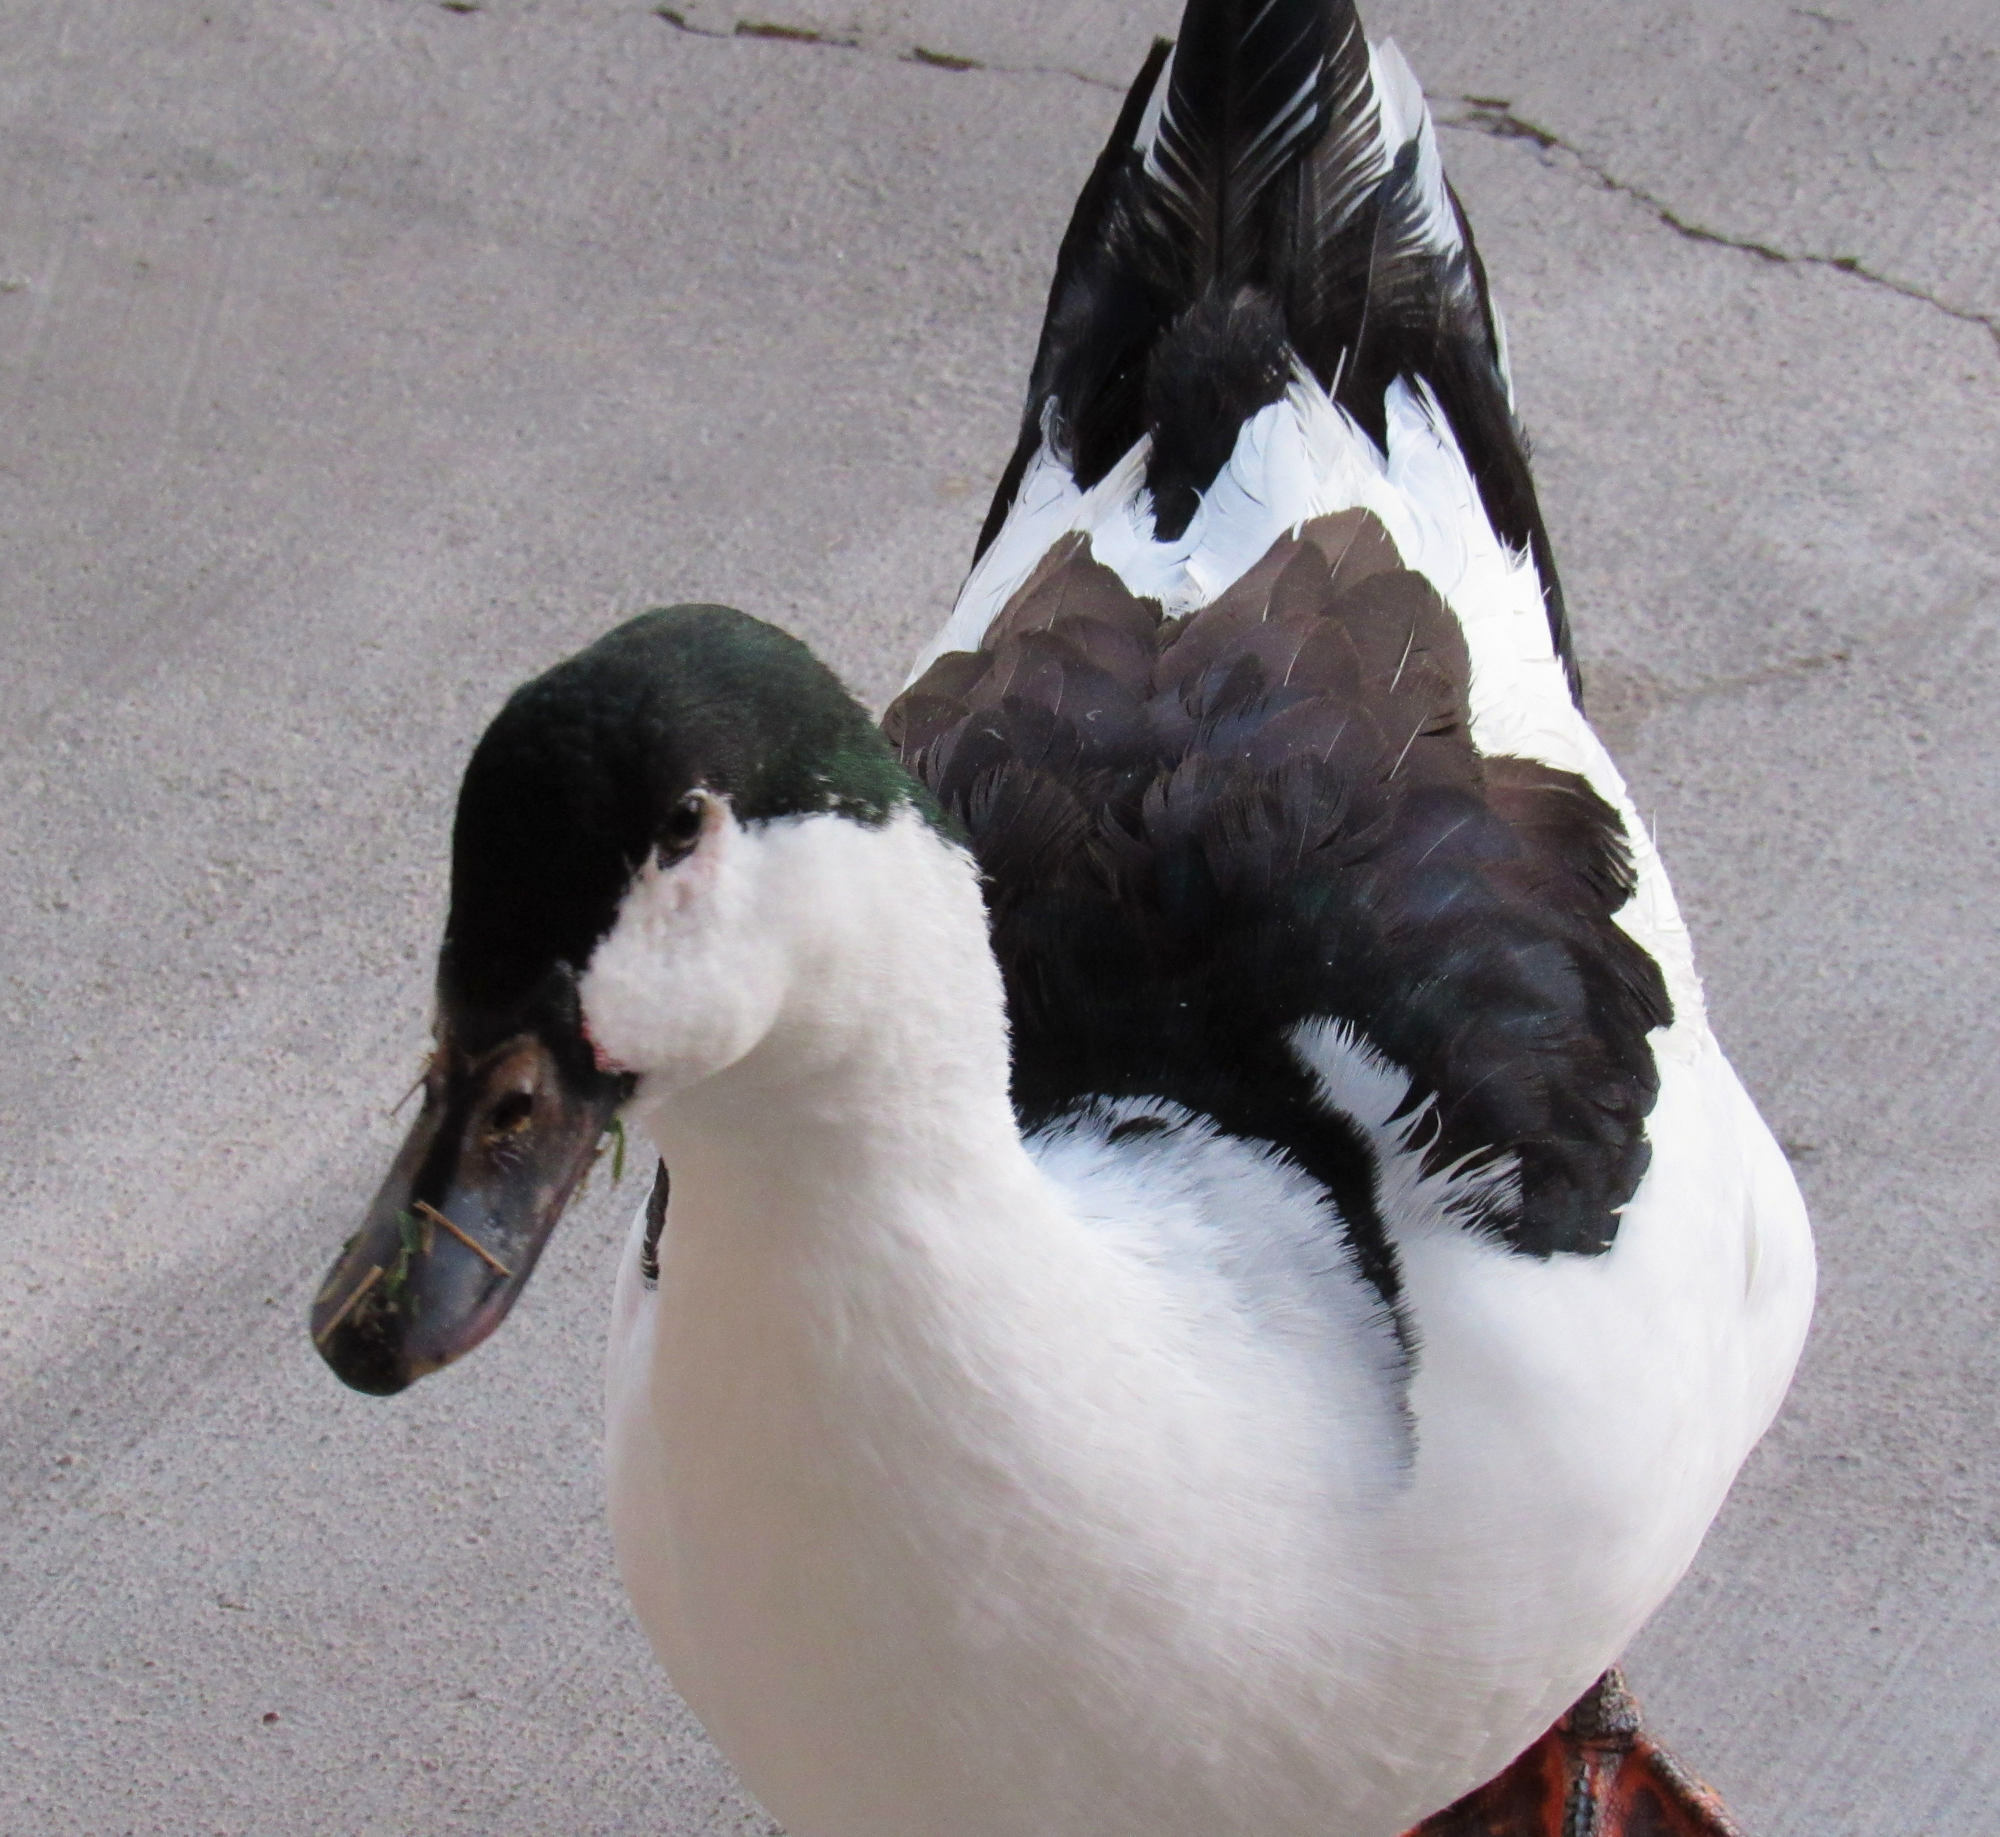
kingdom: Animalia
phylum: Chordata
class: Aves
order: Anseriformes
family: Anatidae
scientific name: Anatidae
